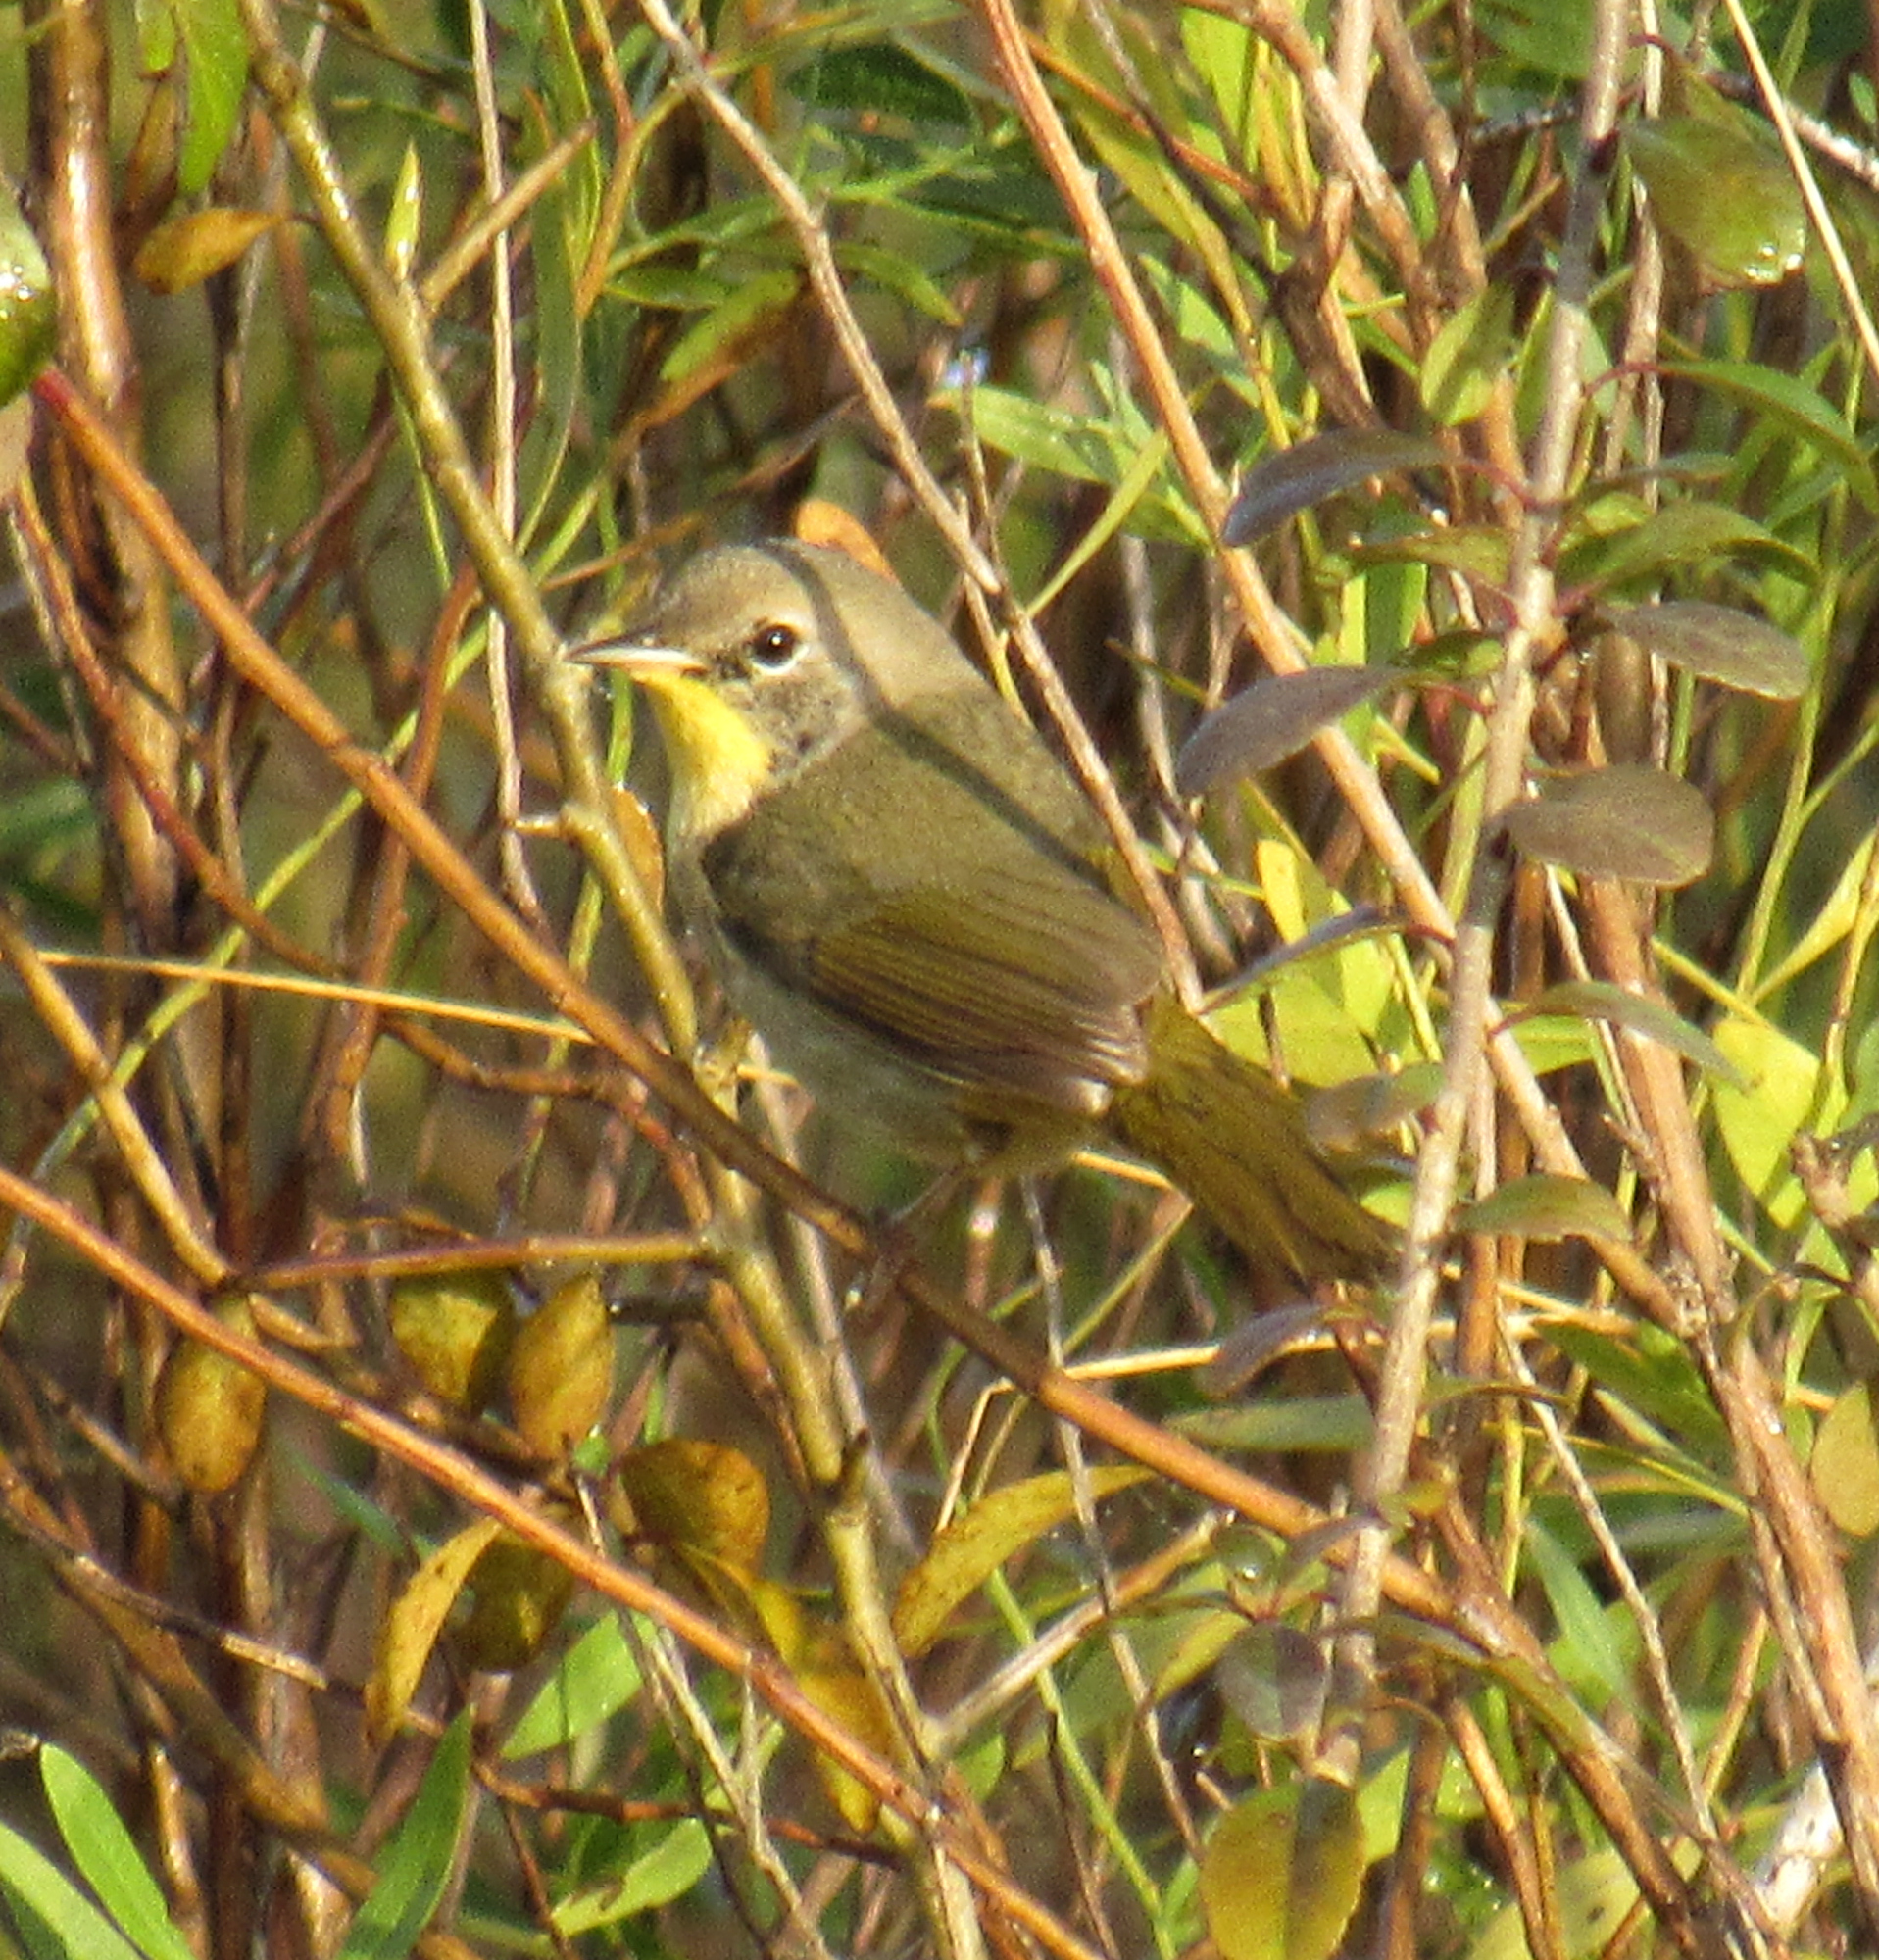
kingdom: Animalia
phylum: Chordata
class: Aves
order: Passeriformes
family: Parulidae
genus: Geothlypis
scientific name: Geothlypis trichas
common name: Common yellowthroat
